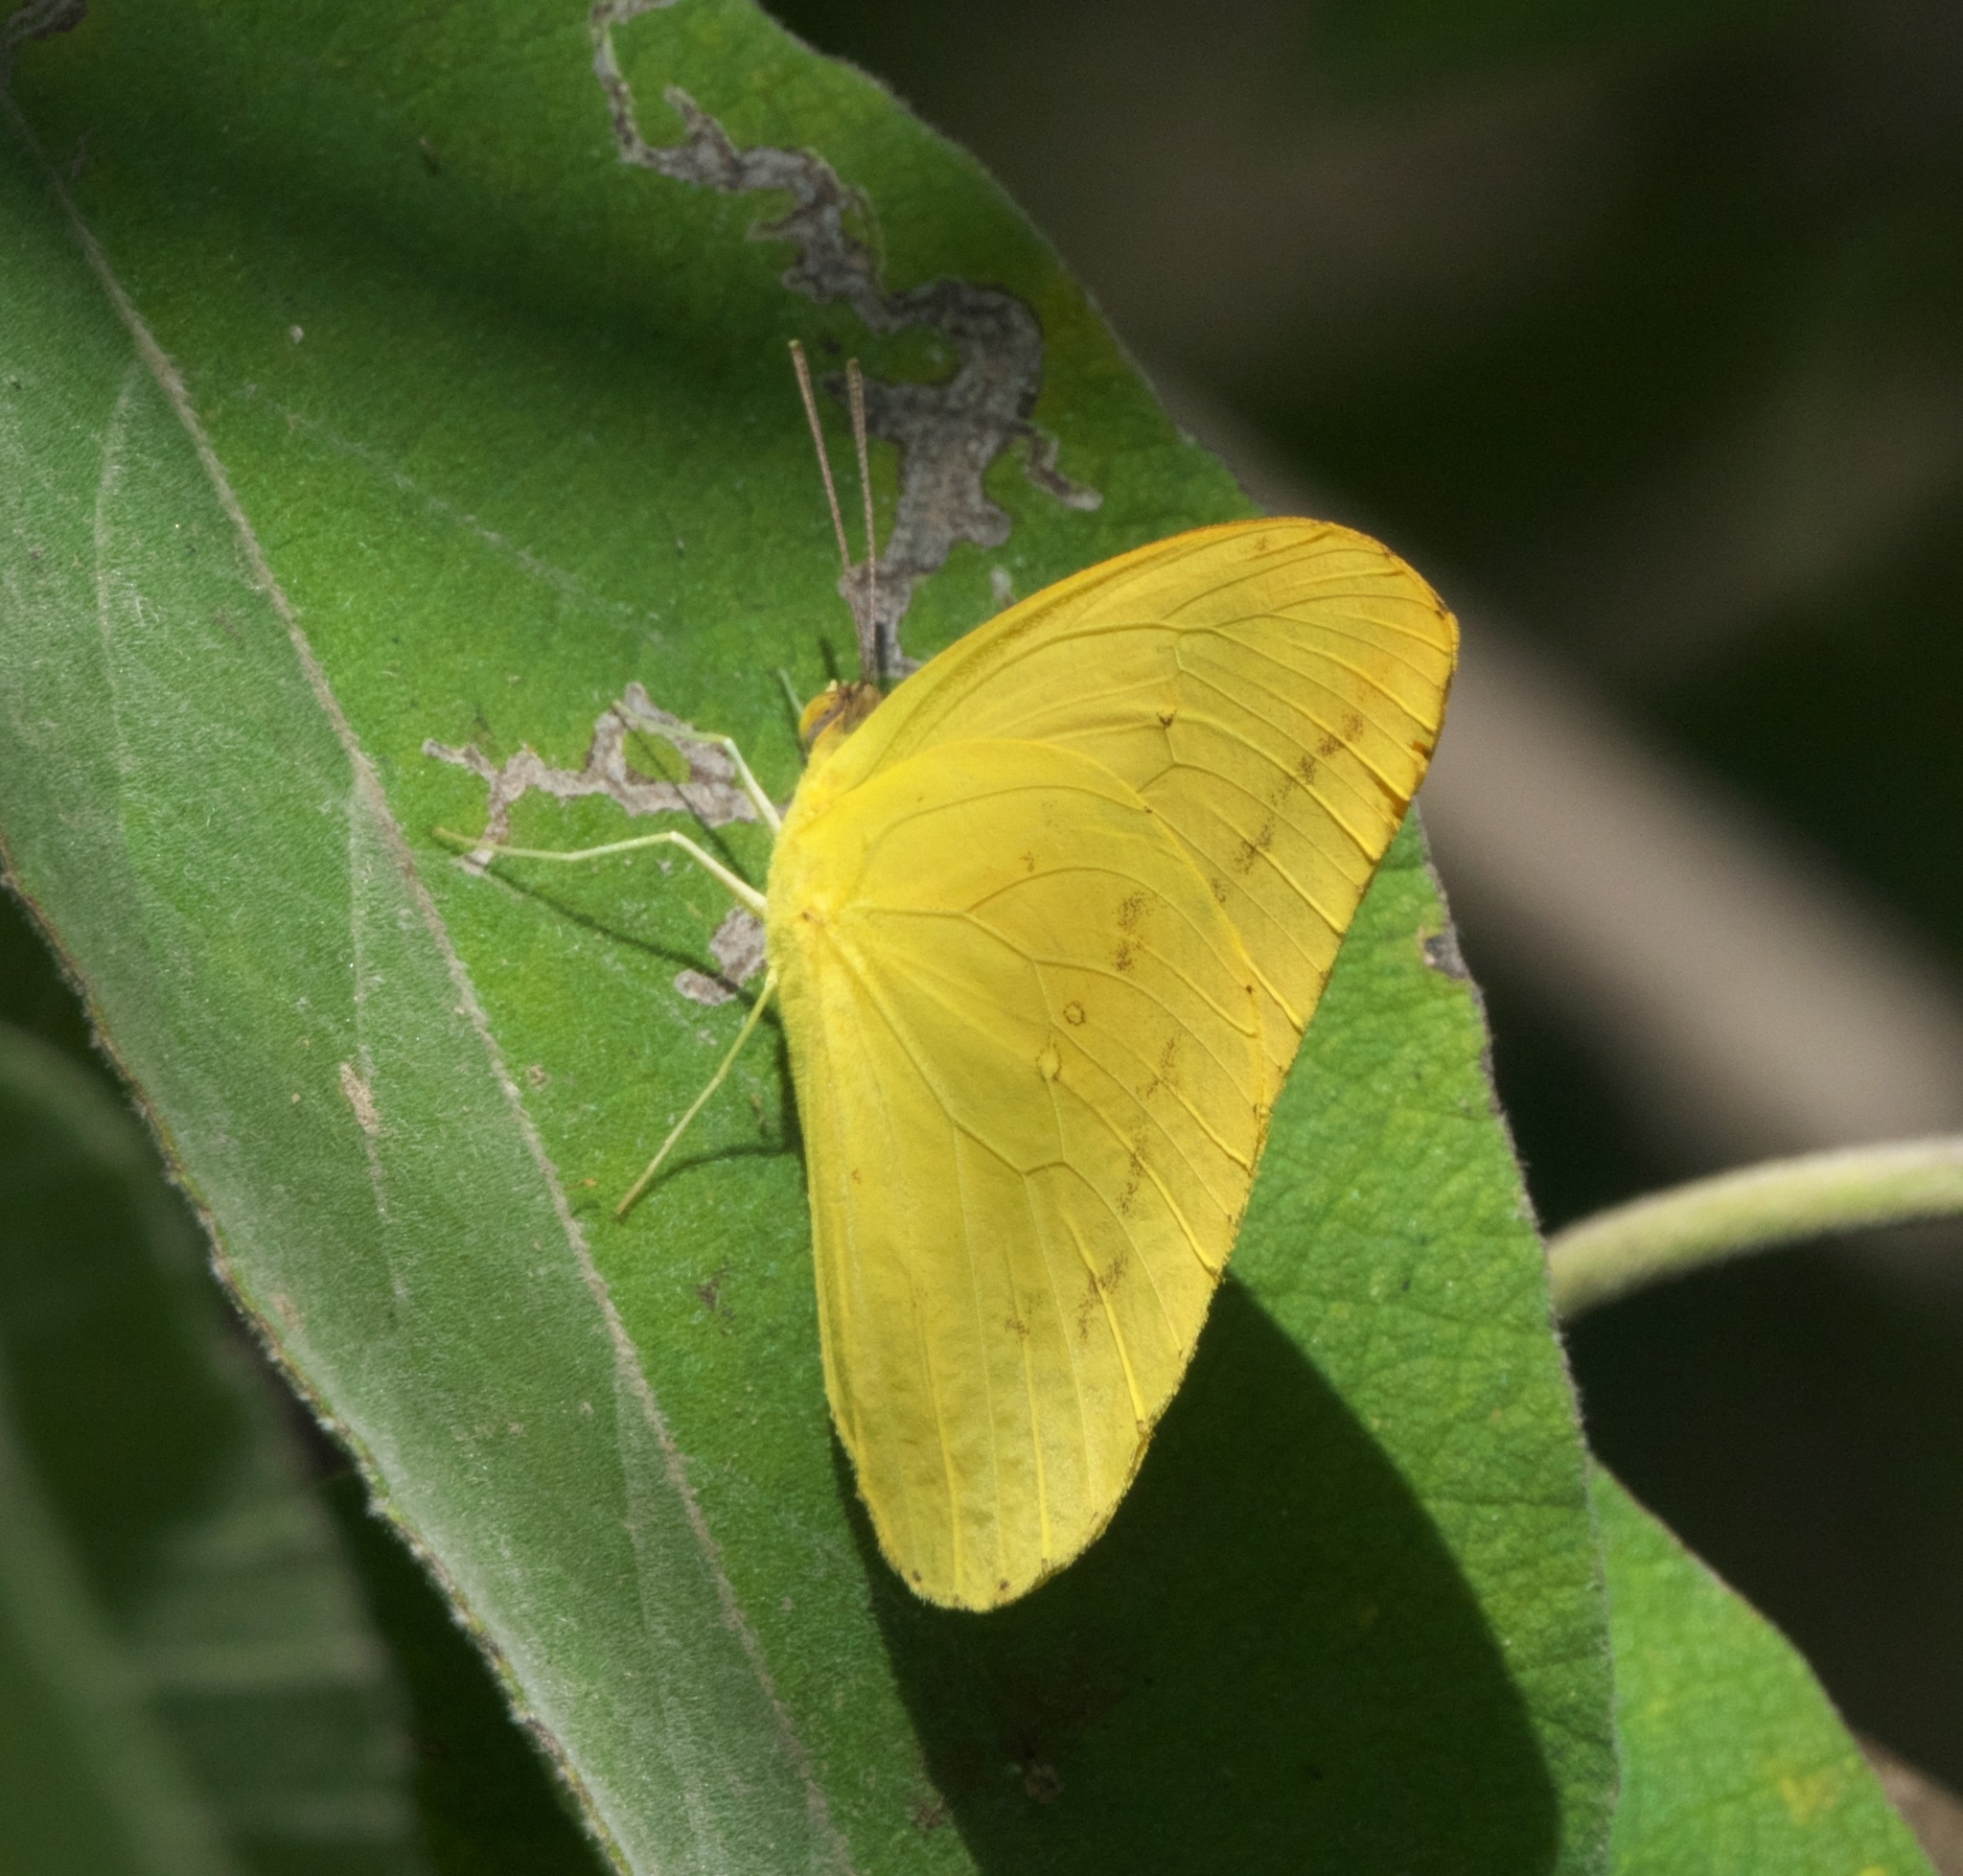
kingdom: Animalia
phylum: Arthropoda
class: Insecta
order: Lepidoptera
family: Pieridae
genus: Phoebis
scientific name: Phoebis agarithe
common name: Large orange sulphur
